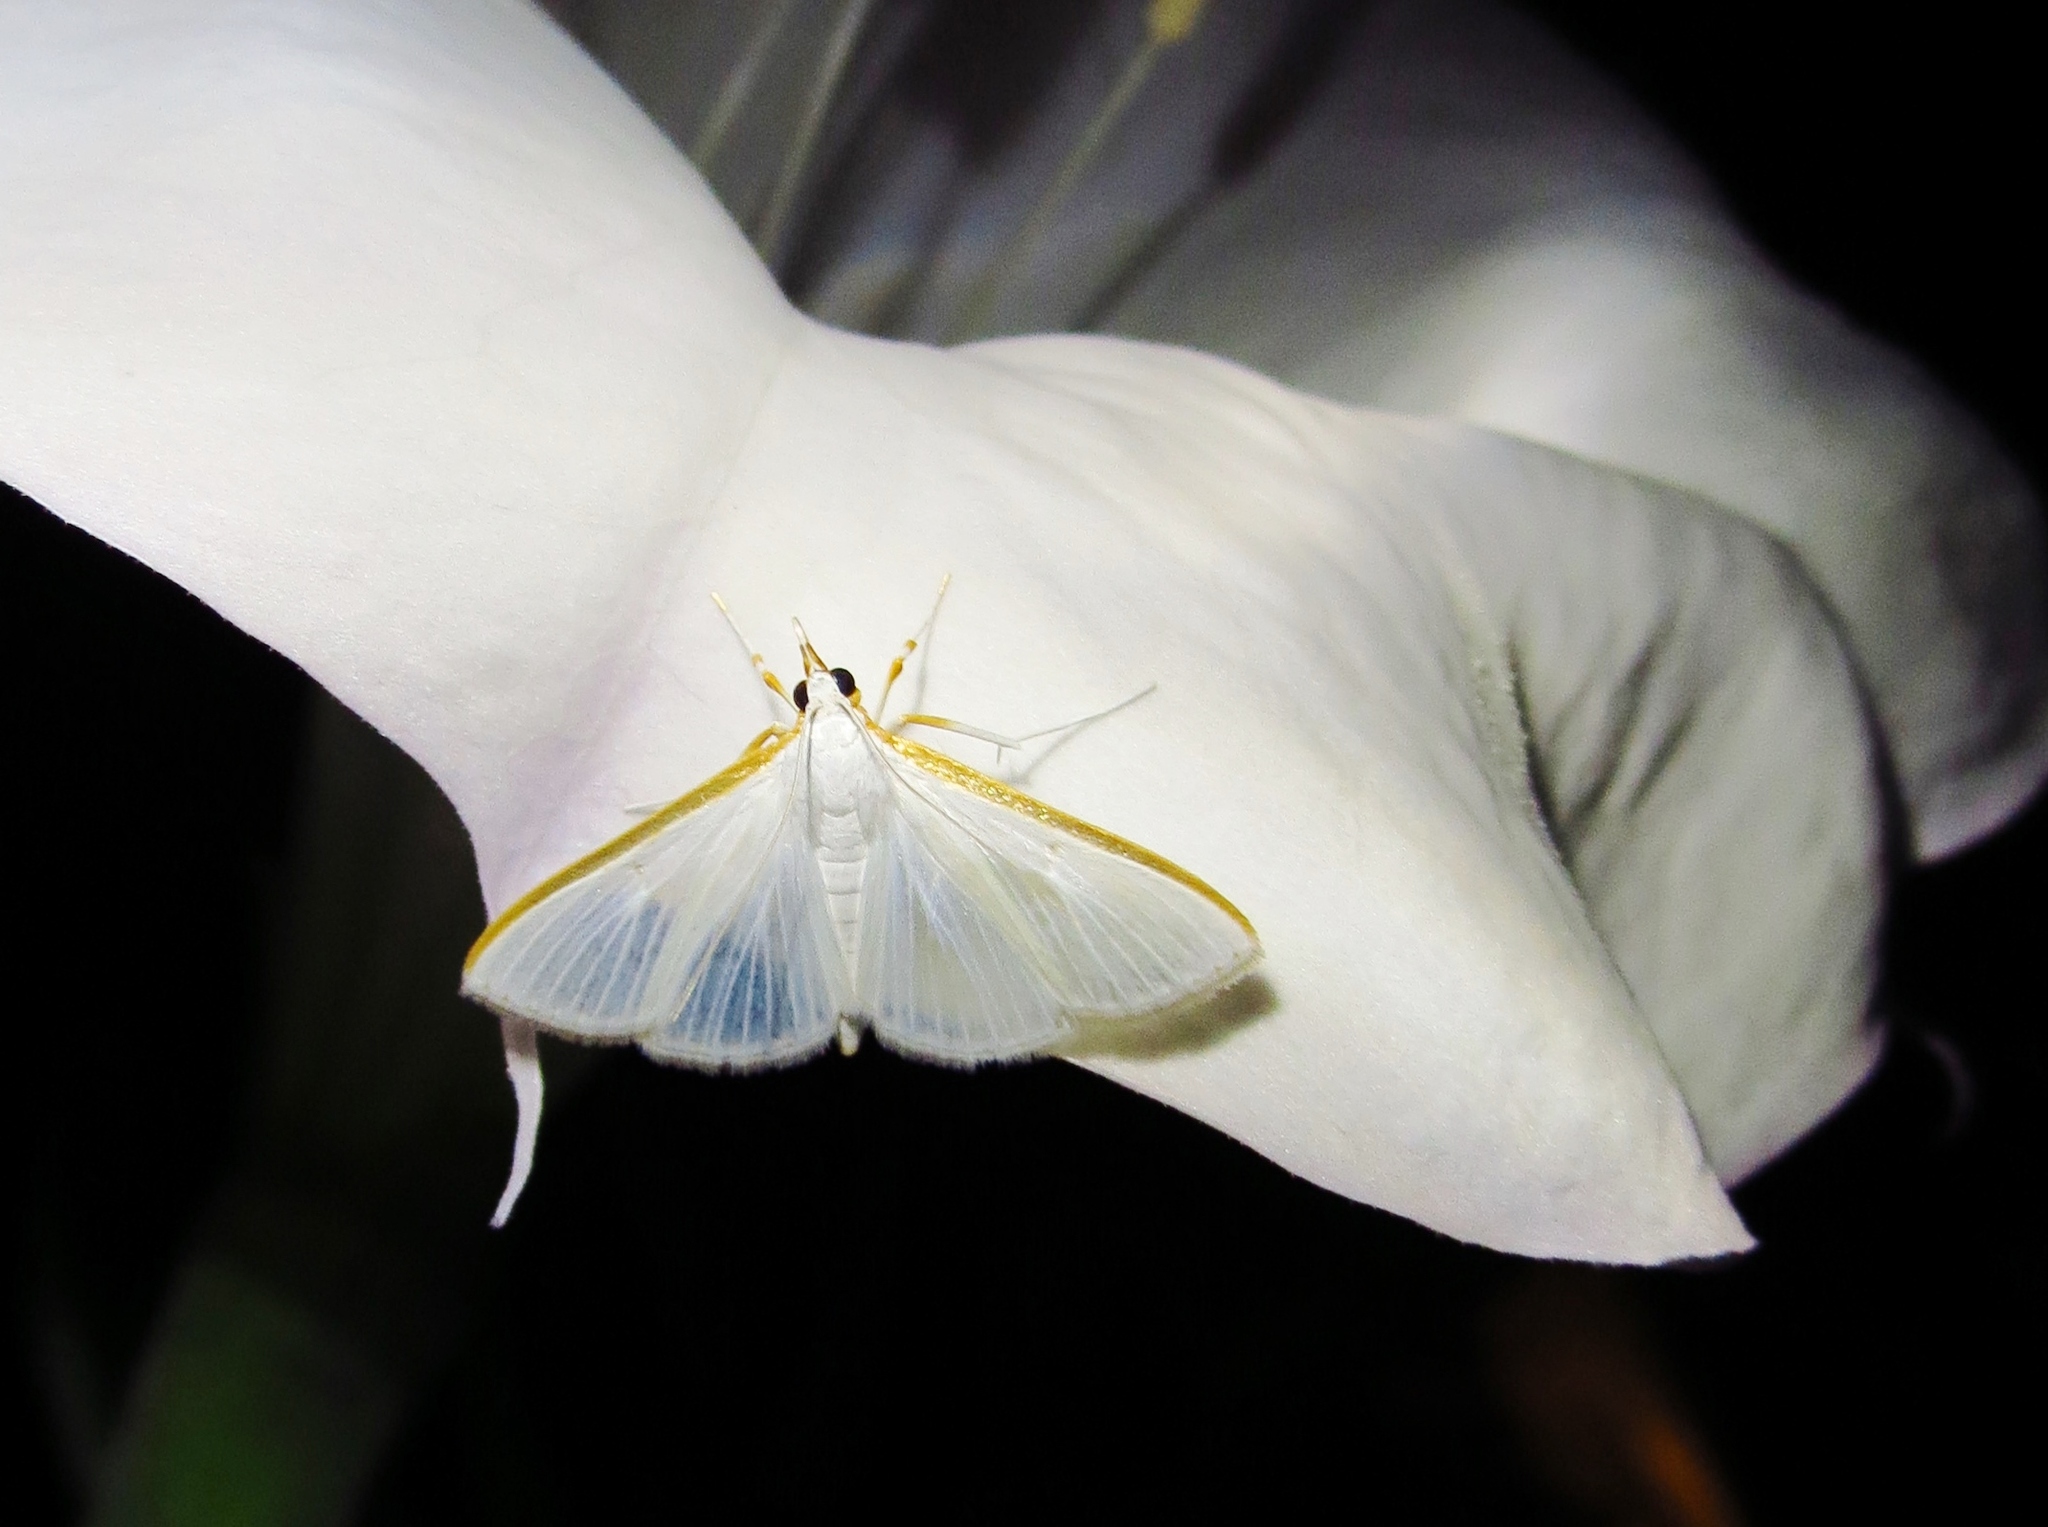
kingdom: Animalia
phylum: Arthropoda
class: Insecta
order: Lepidoptera
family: Crambidae
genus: Diaphania
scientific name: Diaphania costata
